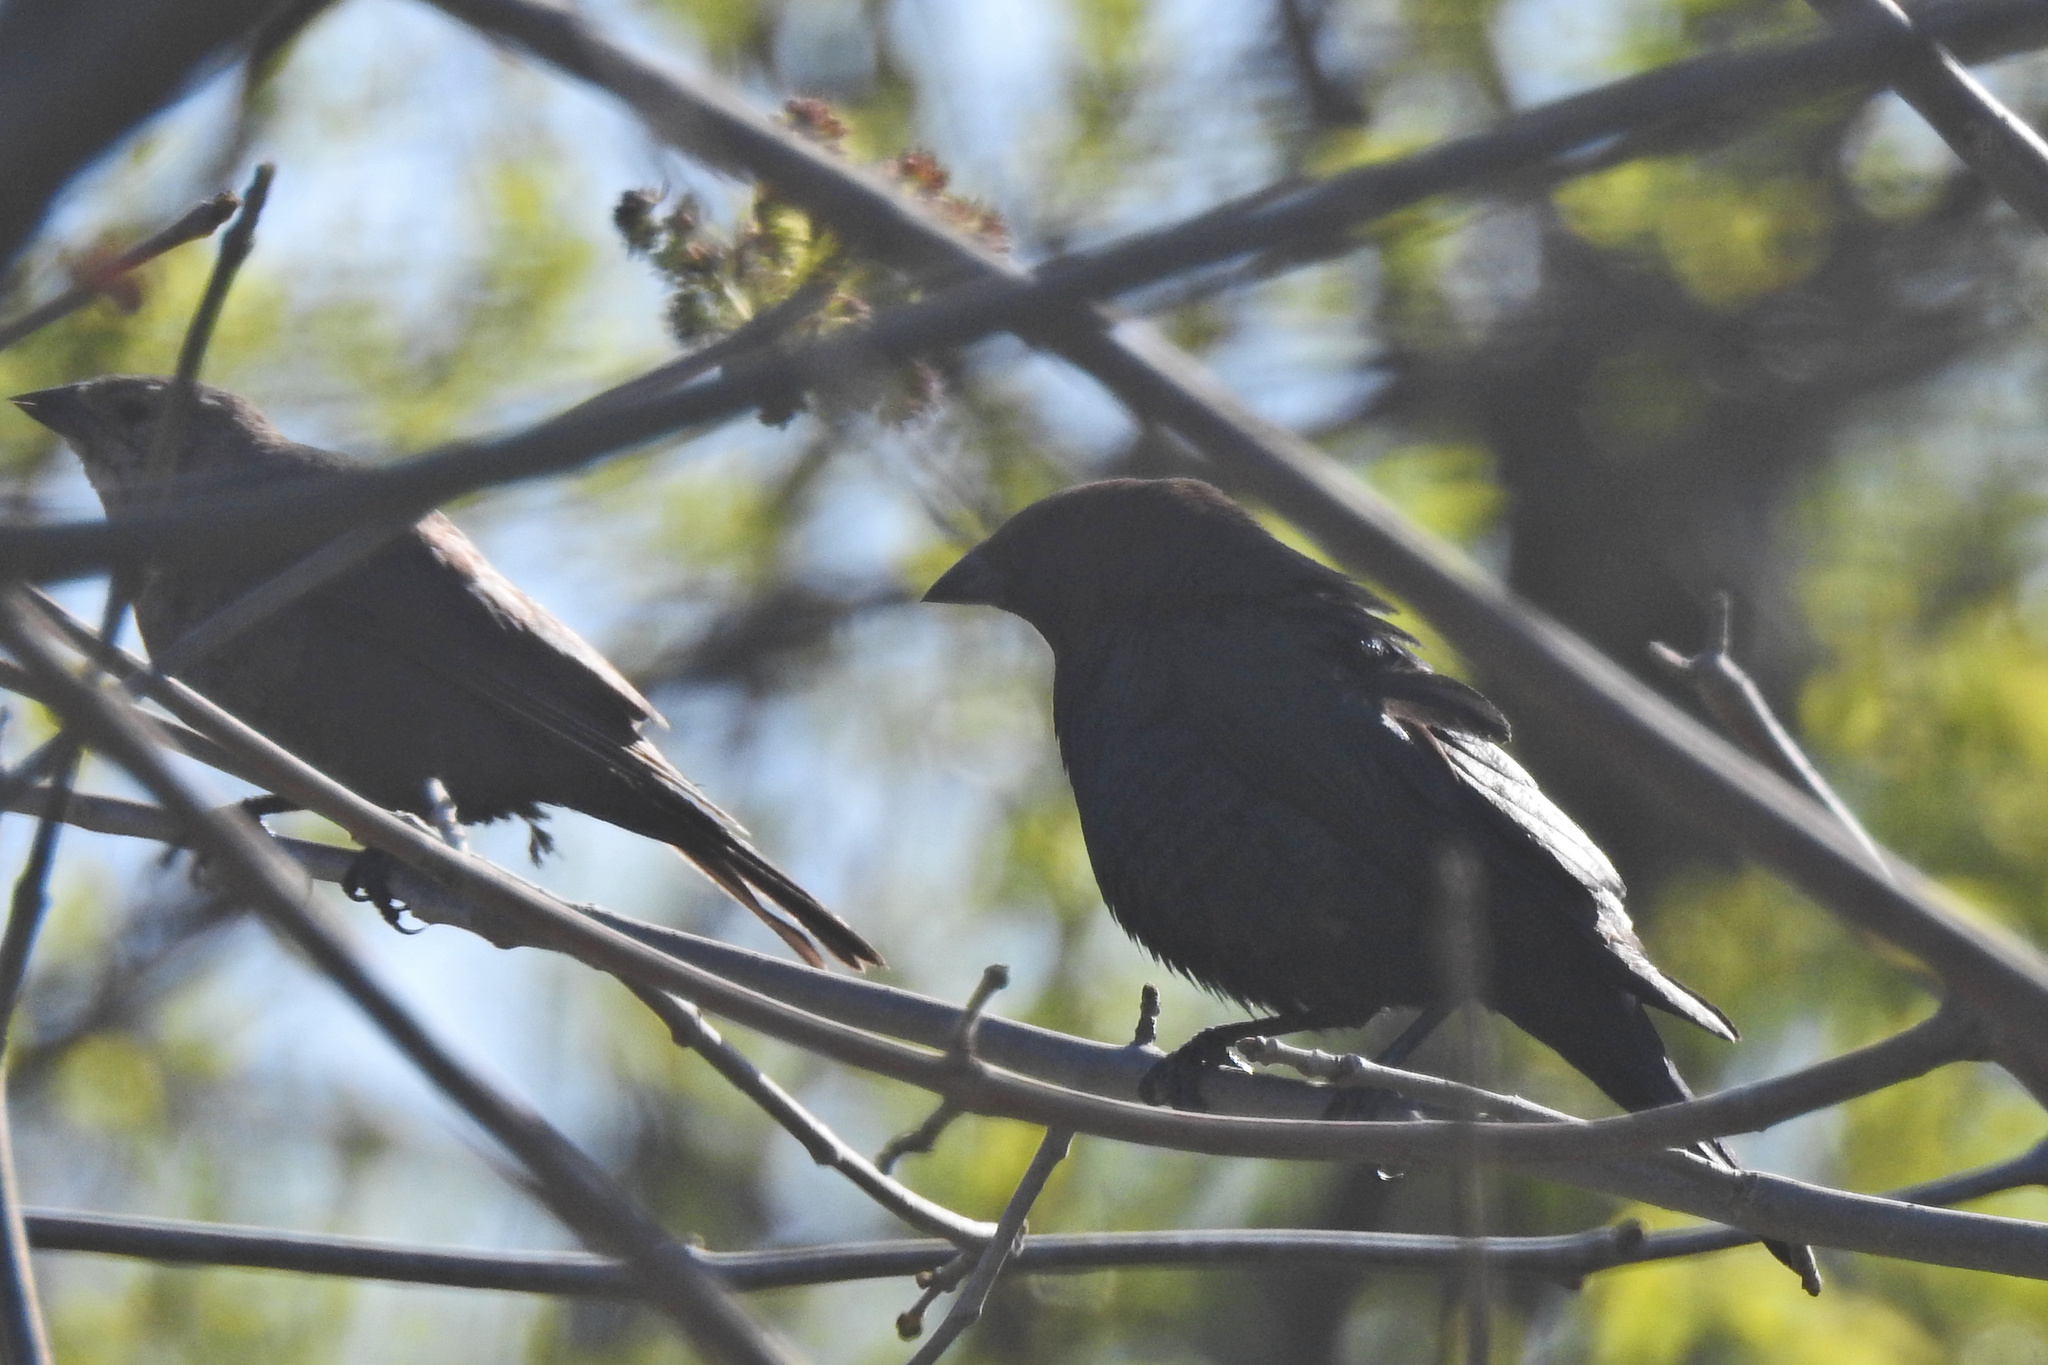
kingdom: Animalia
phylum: Chordata
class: Aves
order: Passeriformes
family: Icteridae
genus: Molothrus
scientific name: Molothrus ater
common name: Brown-headed cowbird
